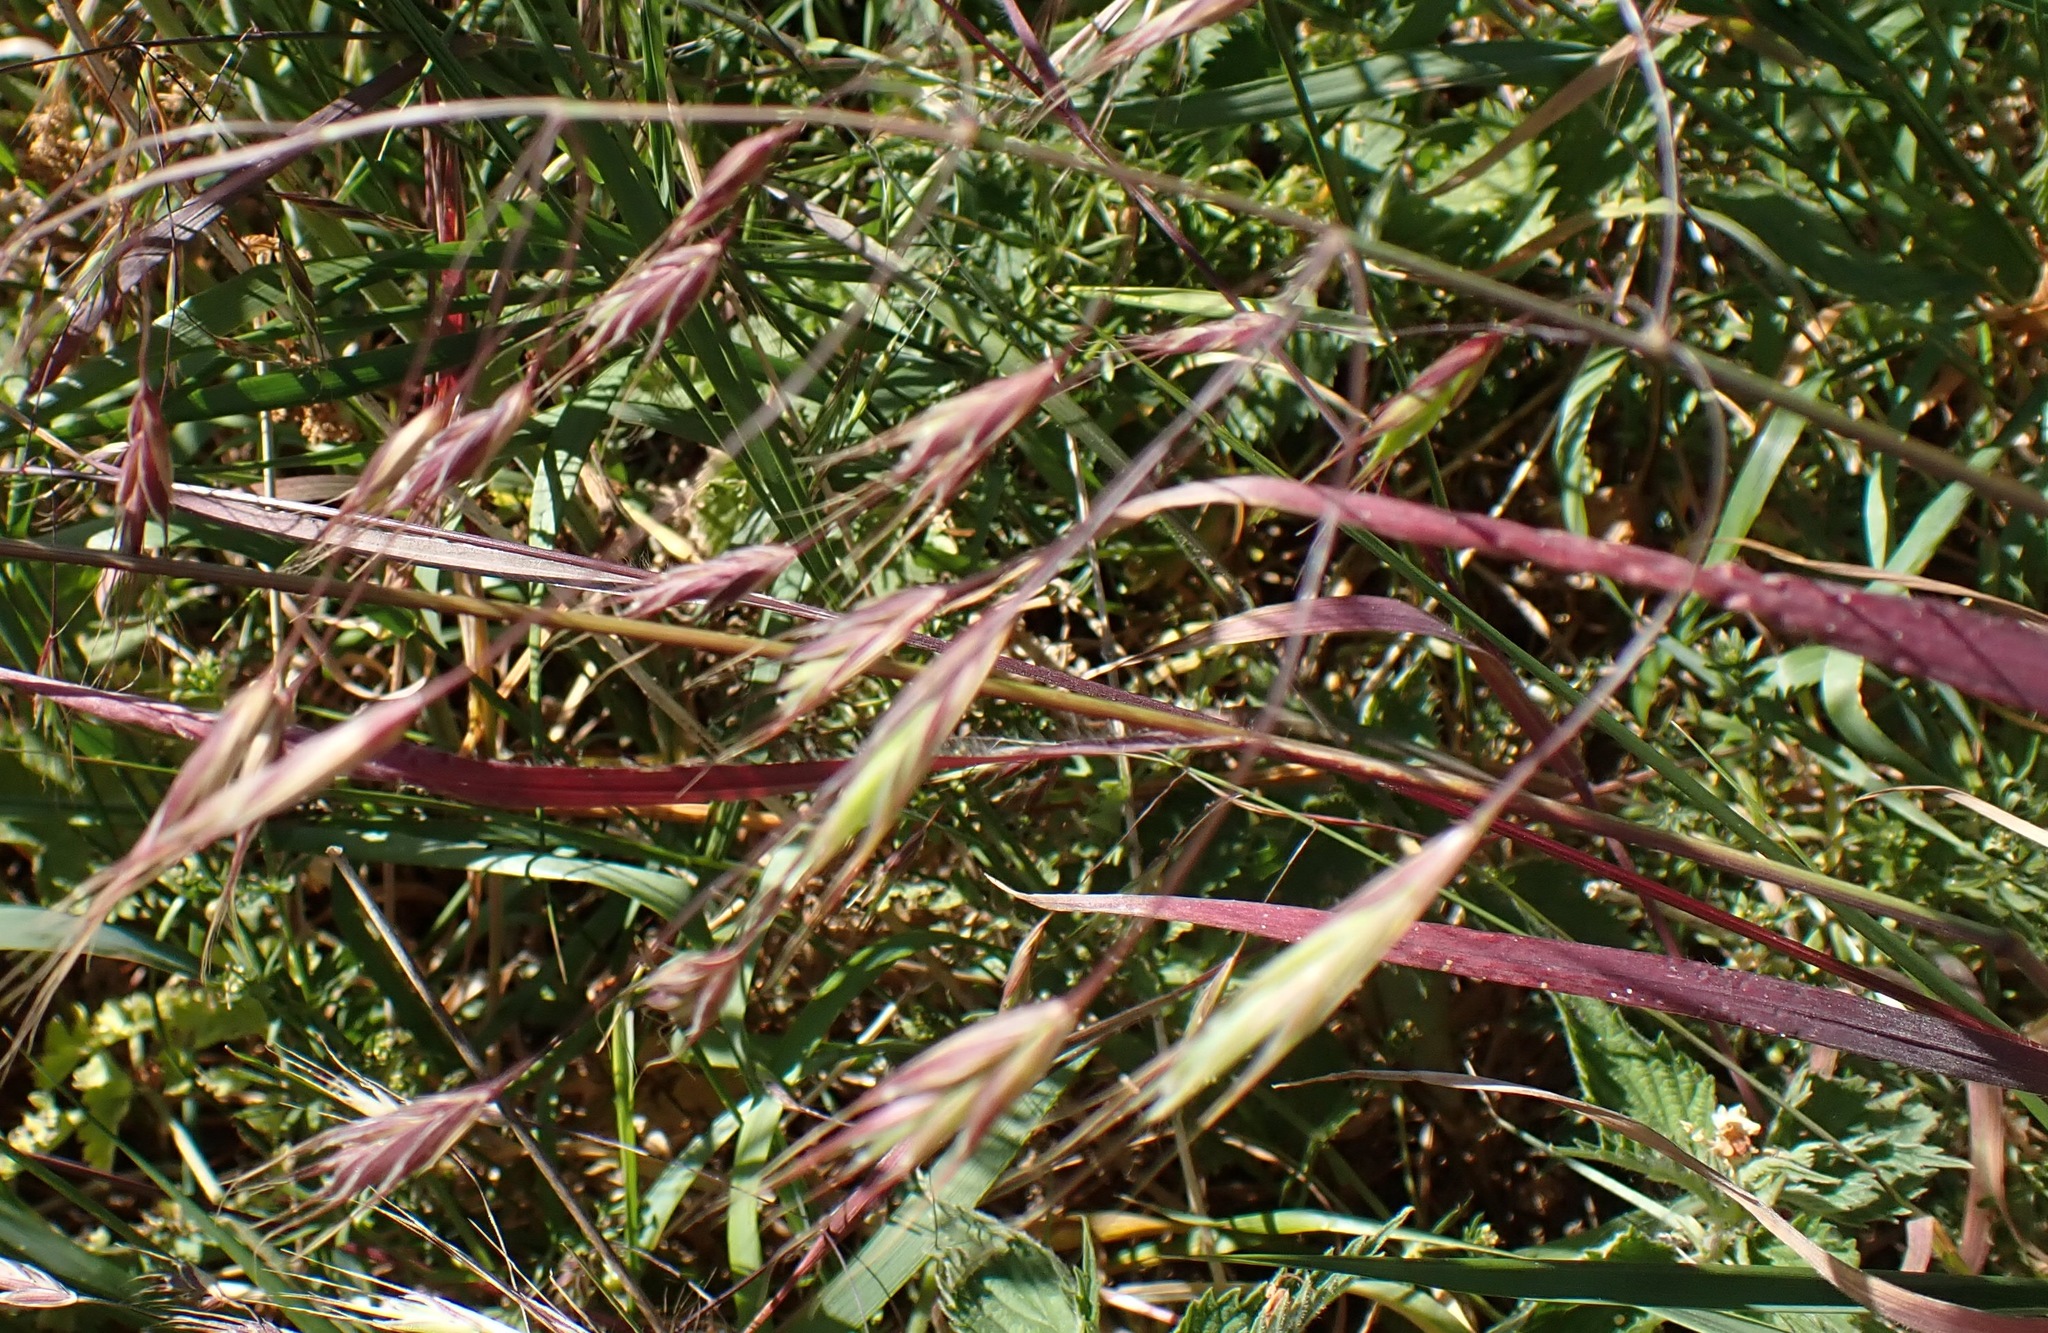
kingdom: Plantae
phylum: Tracheophyta
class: Liliopsida
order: Poales
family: Poaceae
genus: Bromus
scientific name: Bromus sterilis
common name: Poverty brome
